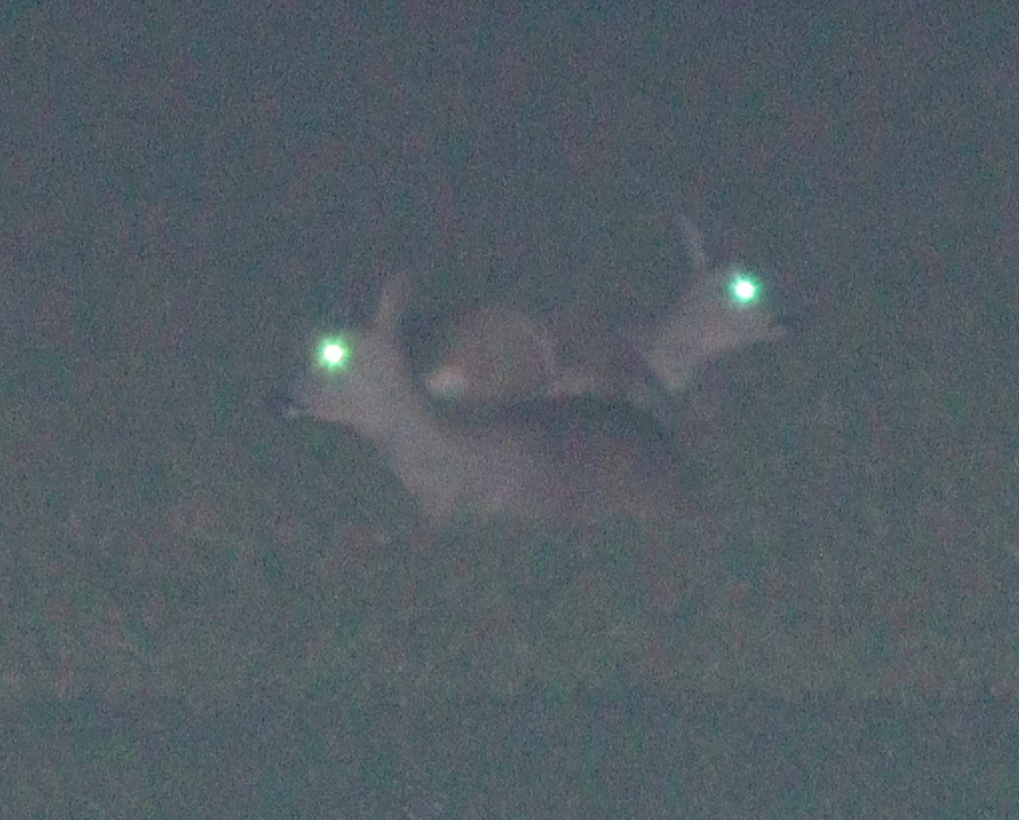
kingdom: Animalia
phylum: Chordata
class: Mammalia
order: Artiodactyla
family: Cervidae
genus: Capreolus
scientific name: Capreolus capreolus
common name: Western roe deer
